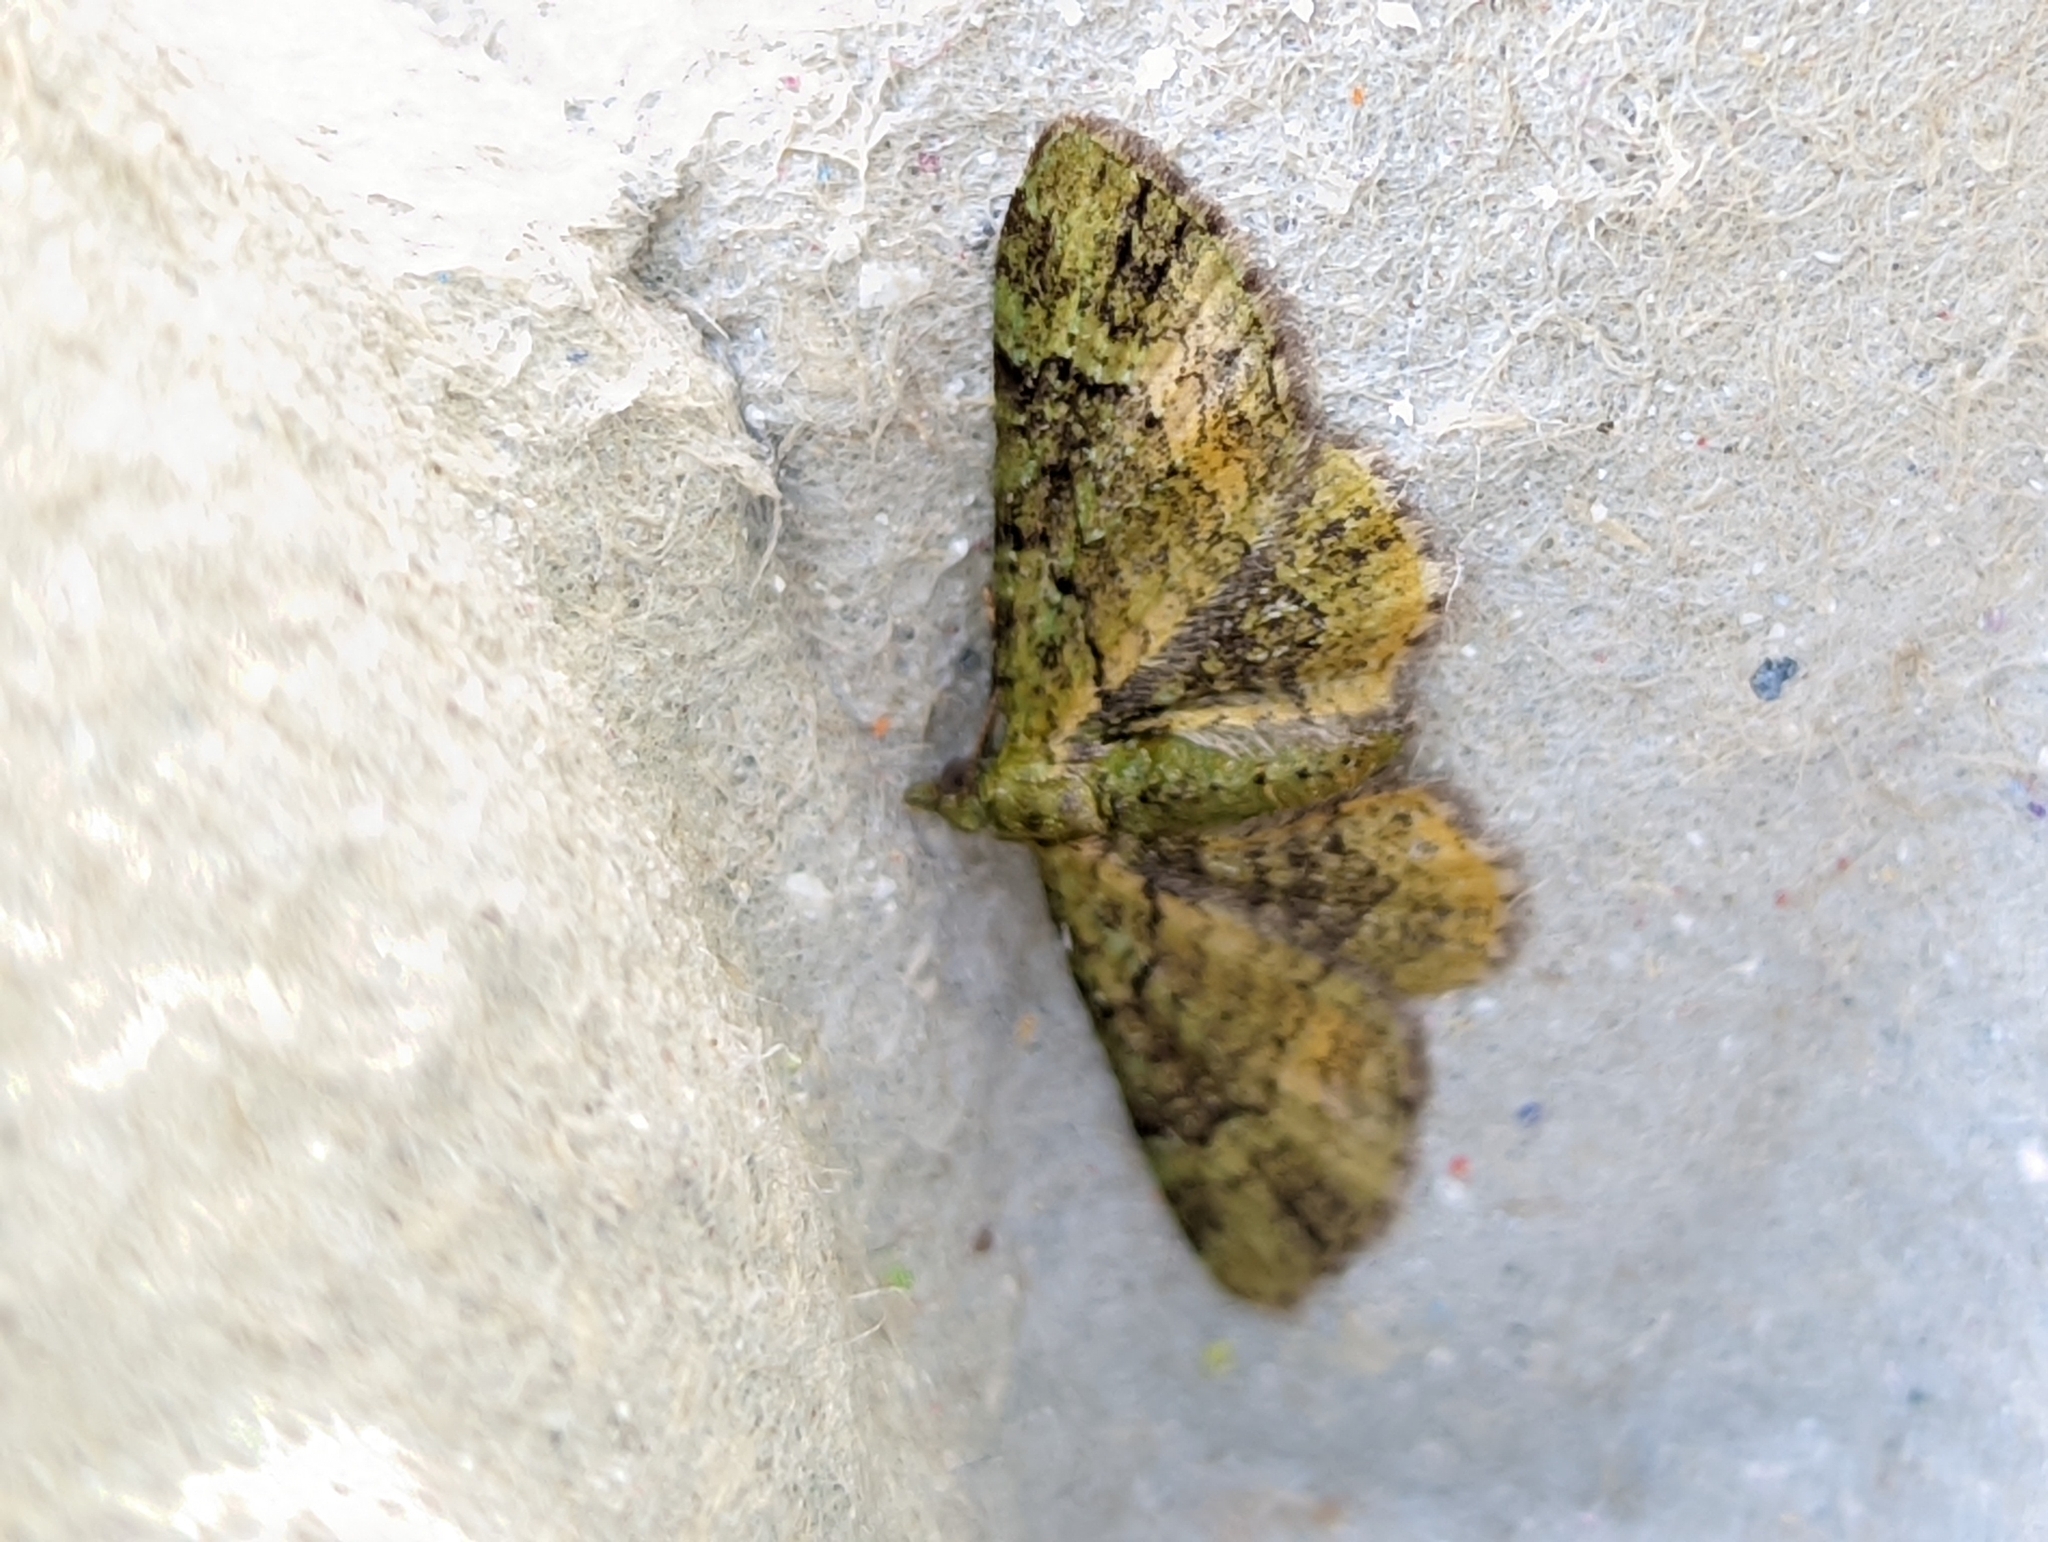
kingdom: Animalia
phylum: Arthropoda
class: Insecta
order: Lepidoptera
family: Geometridae
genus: Pasiphila
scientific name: Pasiphila rectangulata
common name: Green pug
